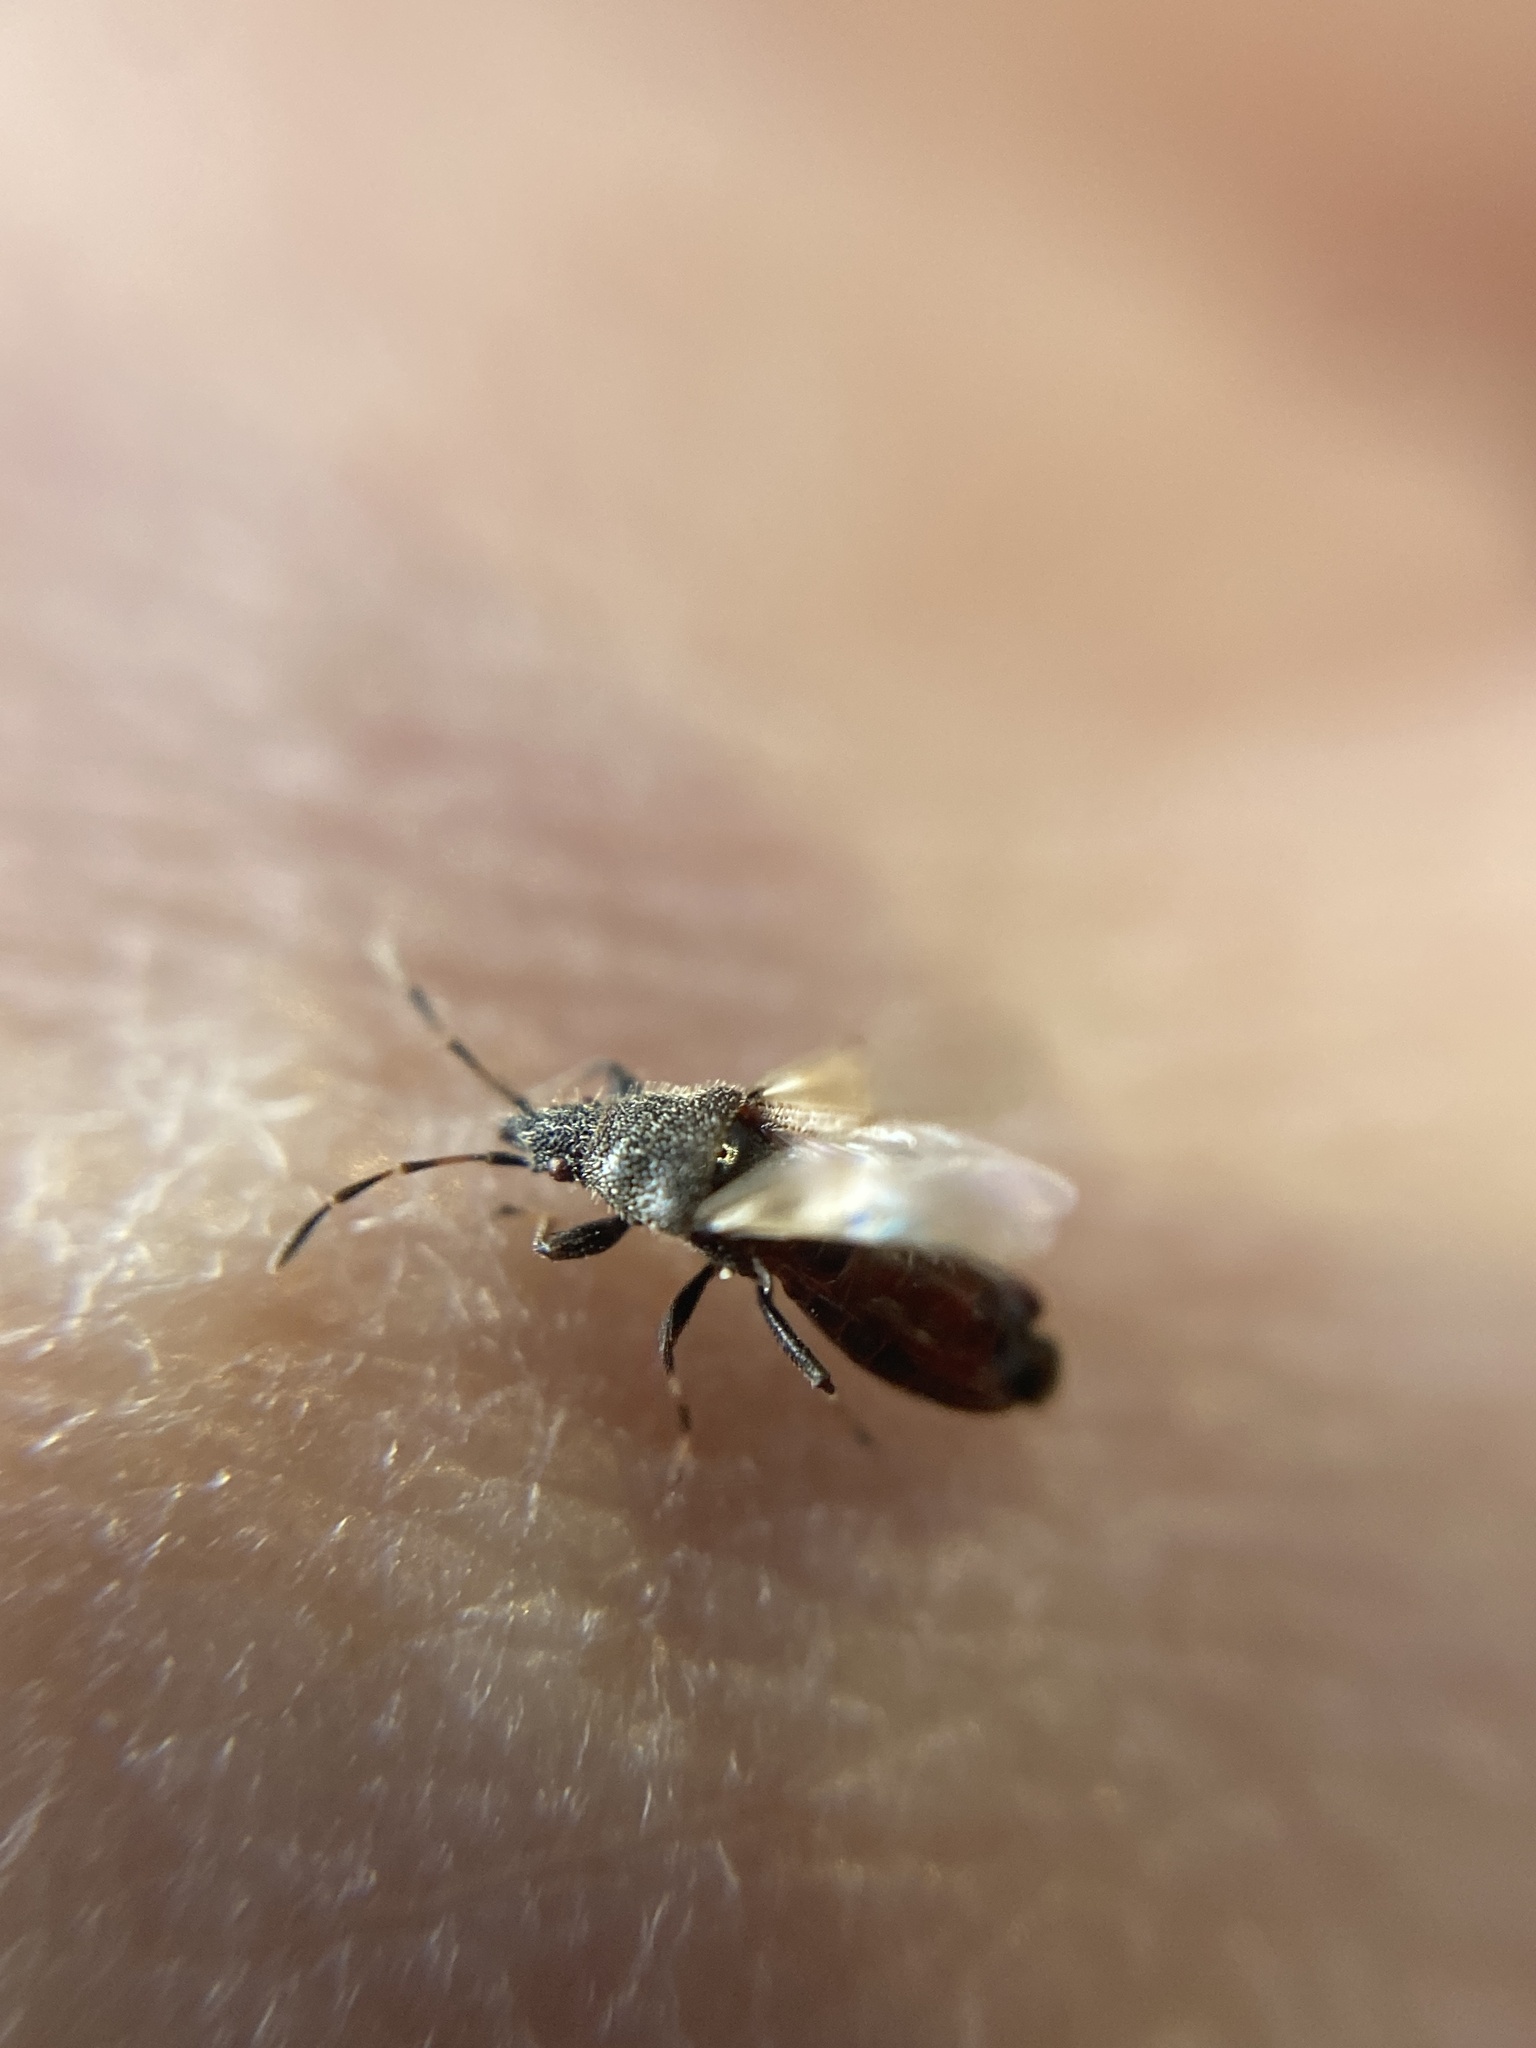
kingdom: Animalia
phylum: Arthropoda
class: Insecta
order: Hemiptera
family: Oxycarenidae
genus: Oxycarenus
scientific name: Oxycarenus hyalinipennis
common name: Cotton seed bug
